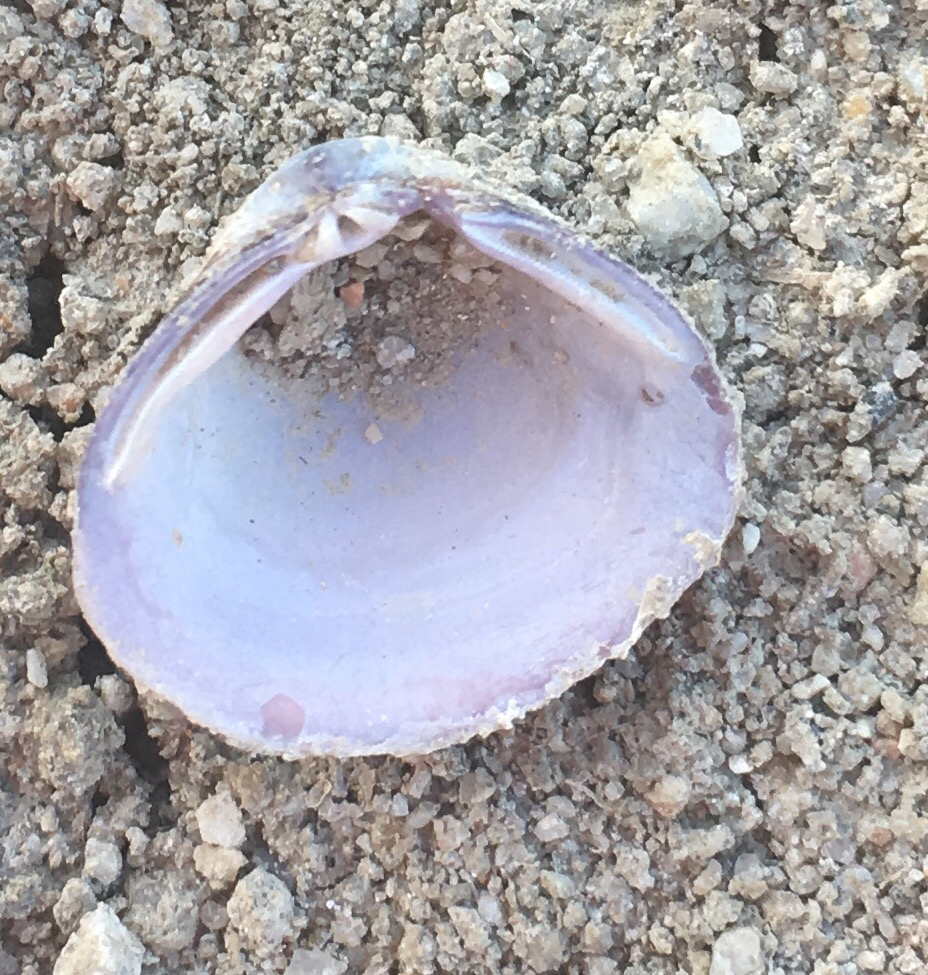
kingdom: Animalia
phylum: Mollusca
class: Bivalvia
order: Venerida
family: Cyrenidae
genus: Corbicula
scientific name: Corbicula fluminea
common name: Asian clam
